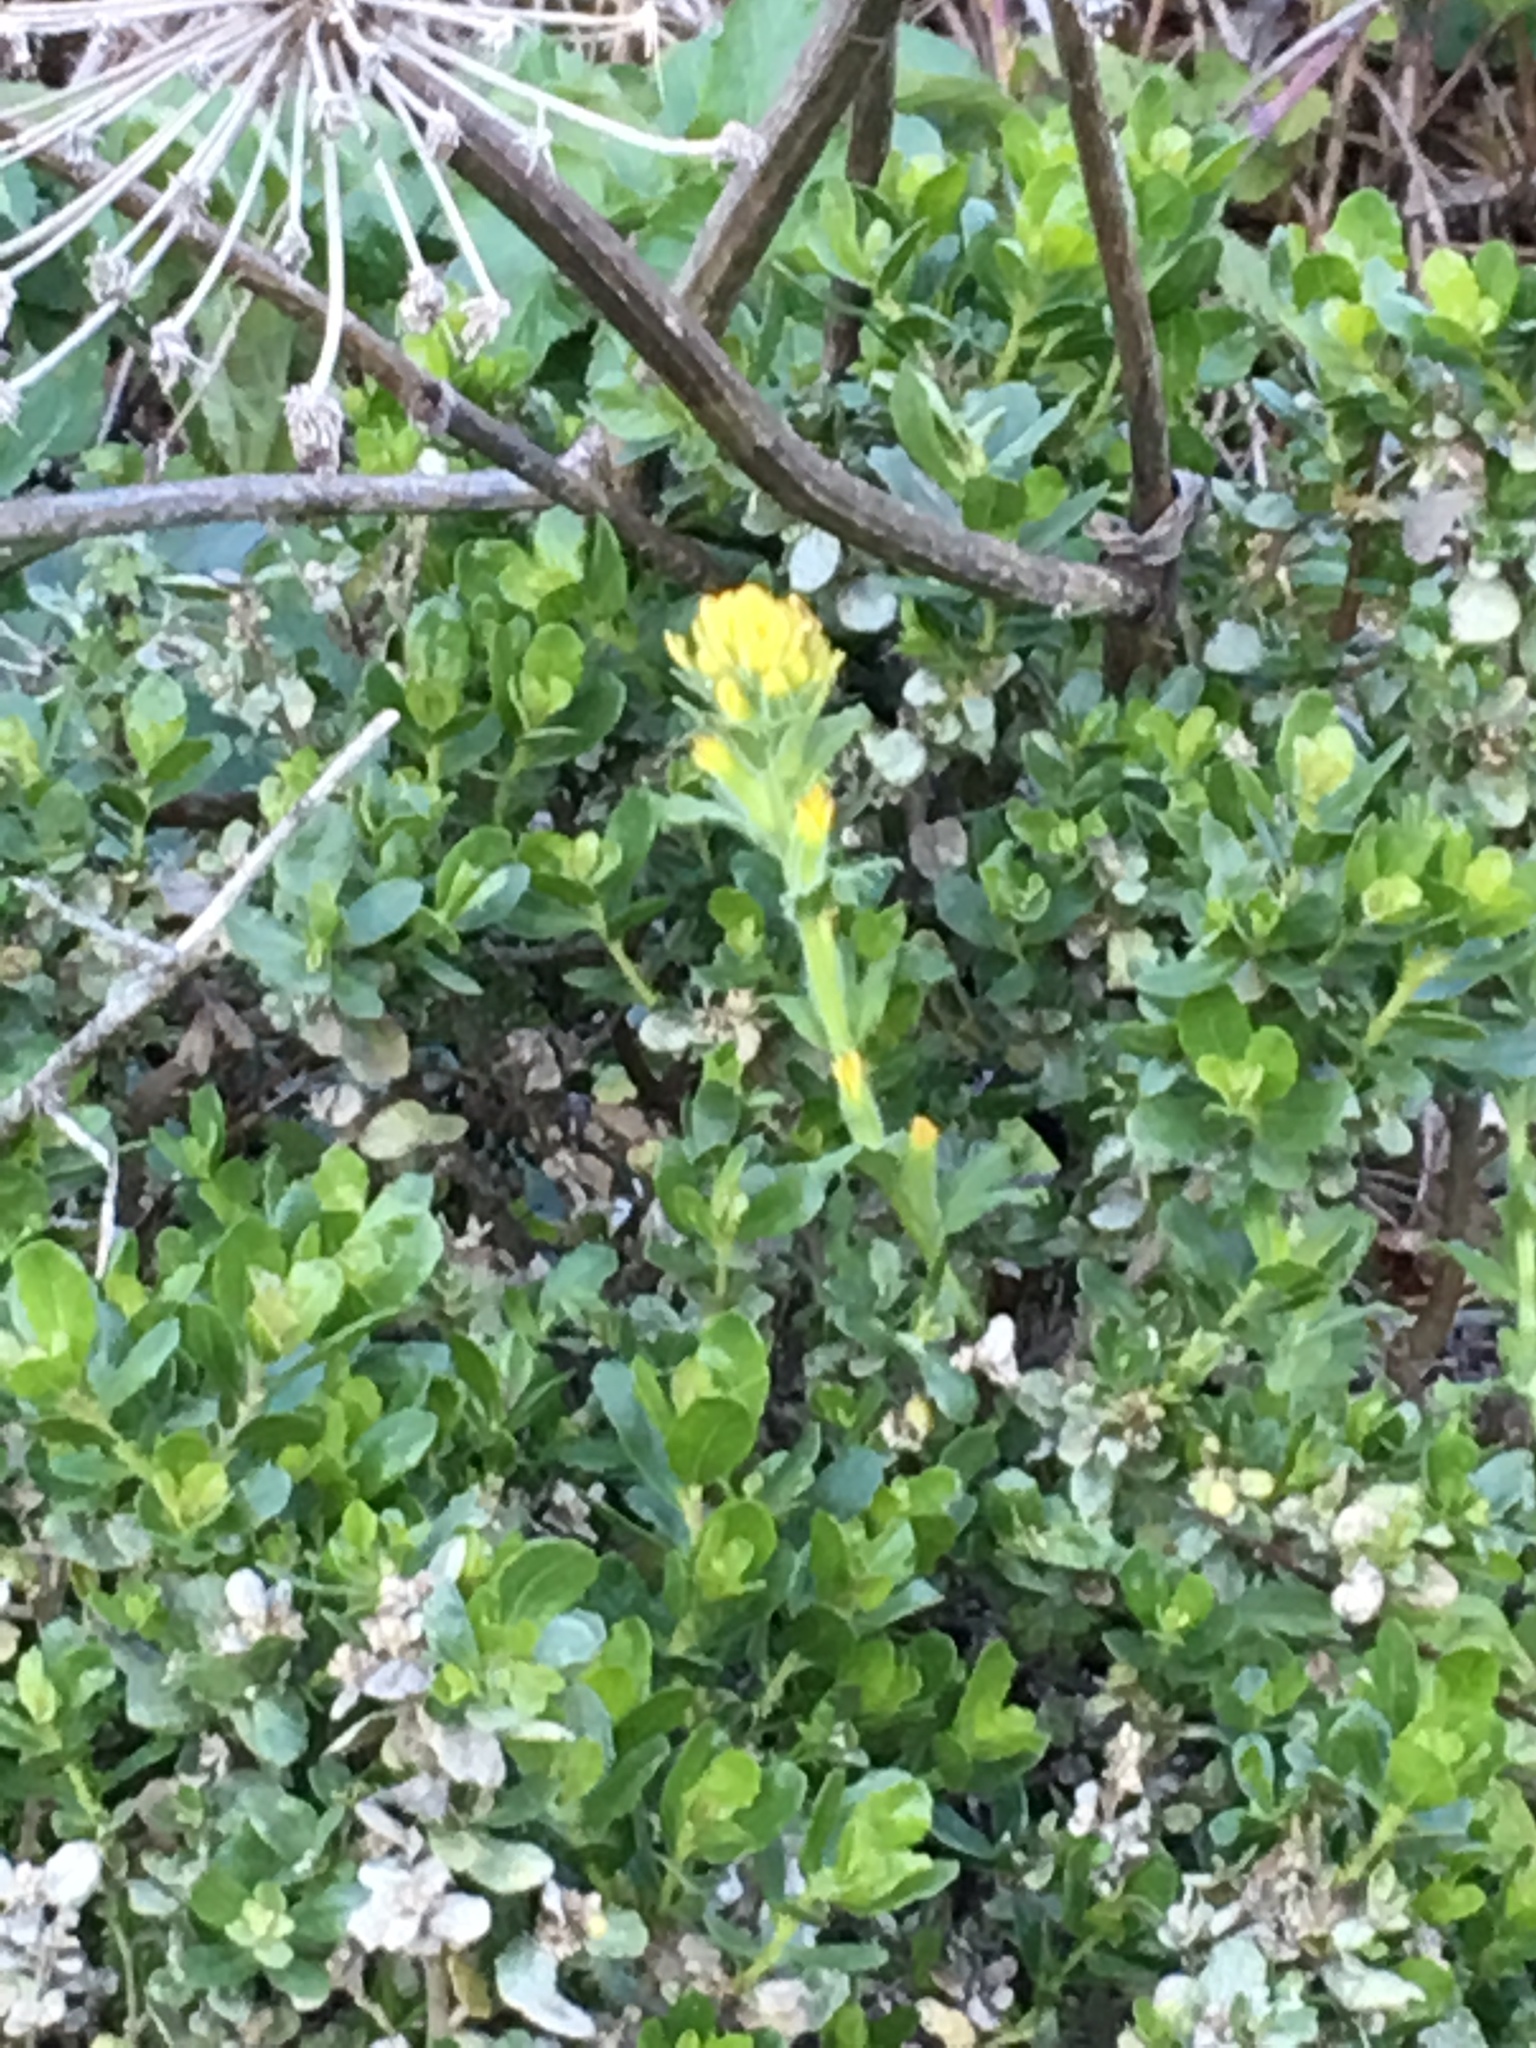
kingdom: Plantae
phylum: Tracheophyta
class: Magnoliopsida
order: Lamiales
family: Orobanchaceae
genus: Castilleja
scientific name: Castilleja wightii
